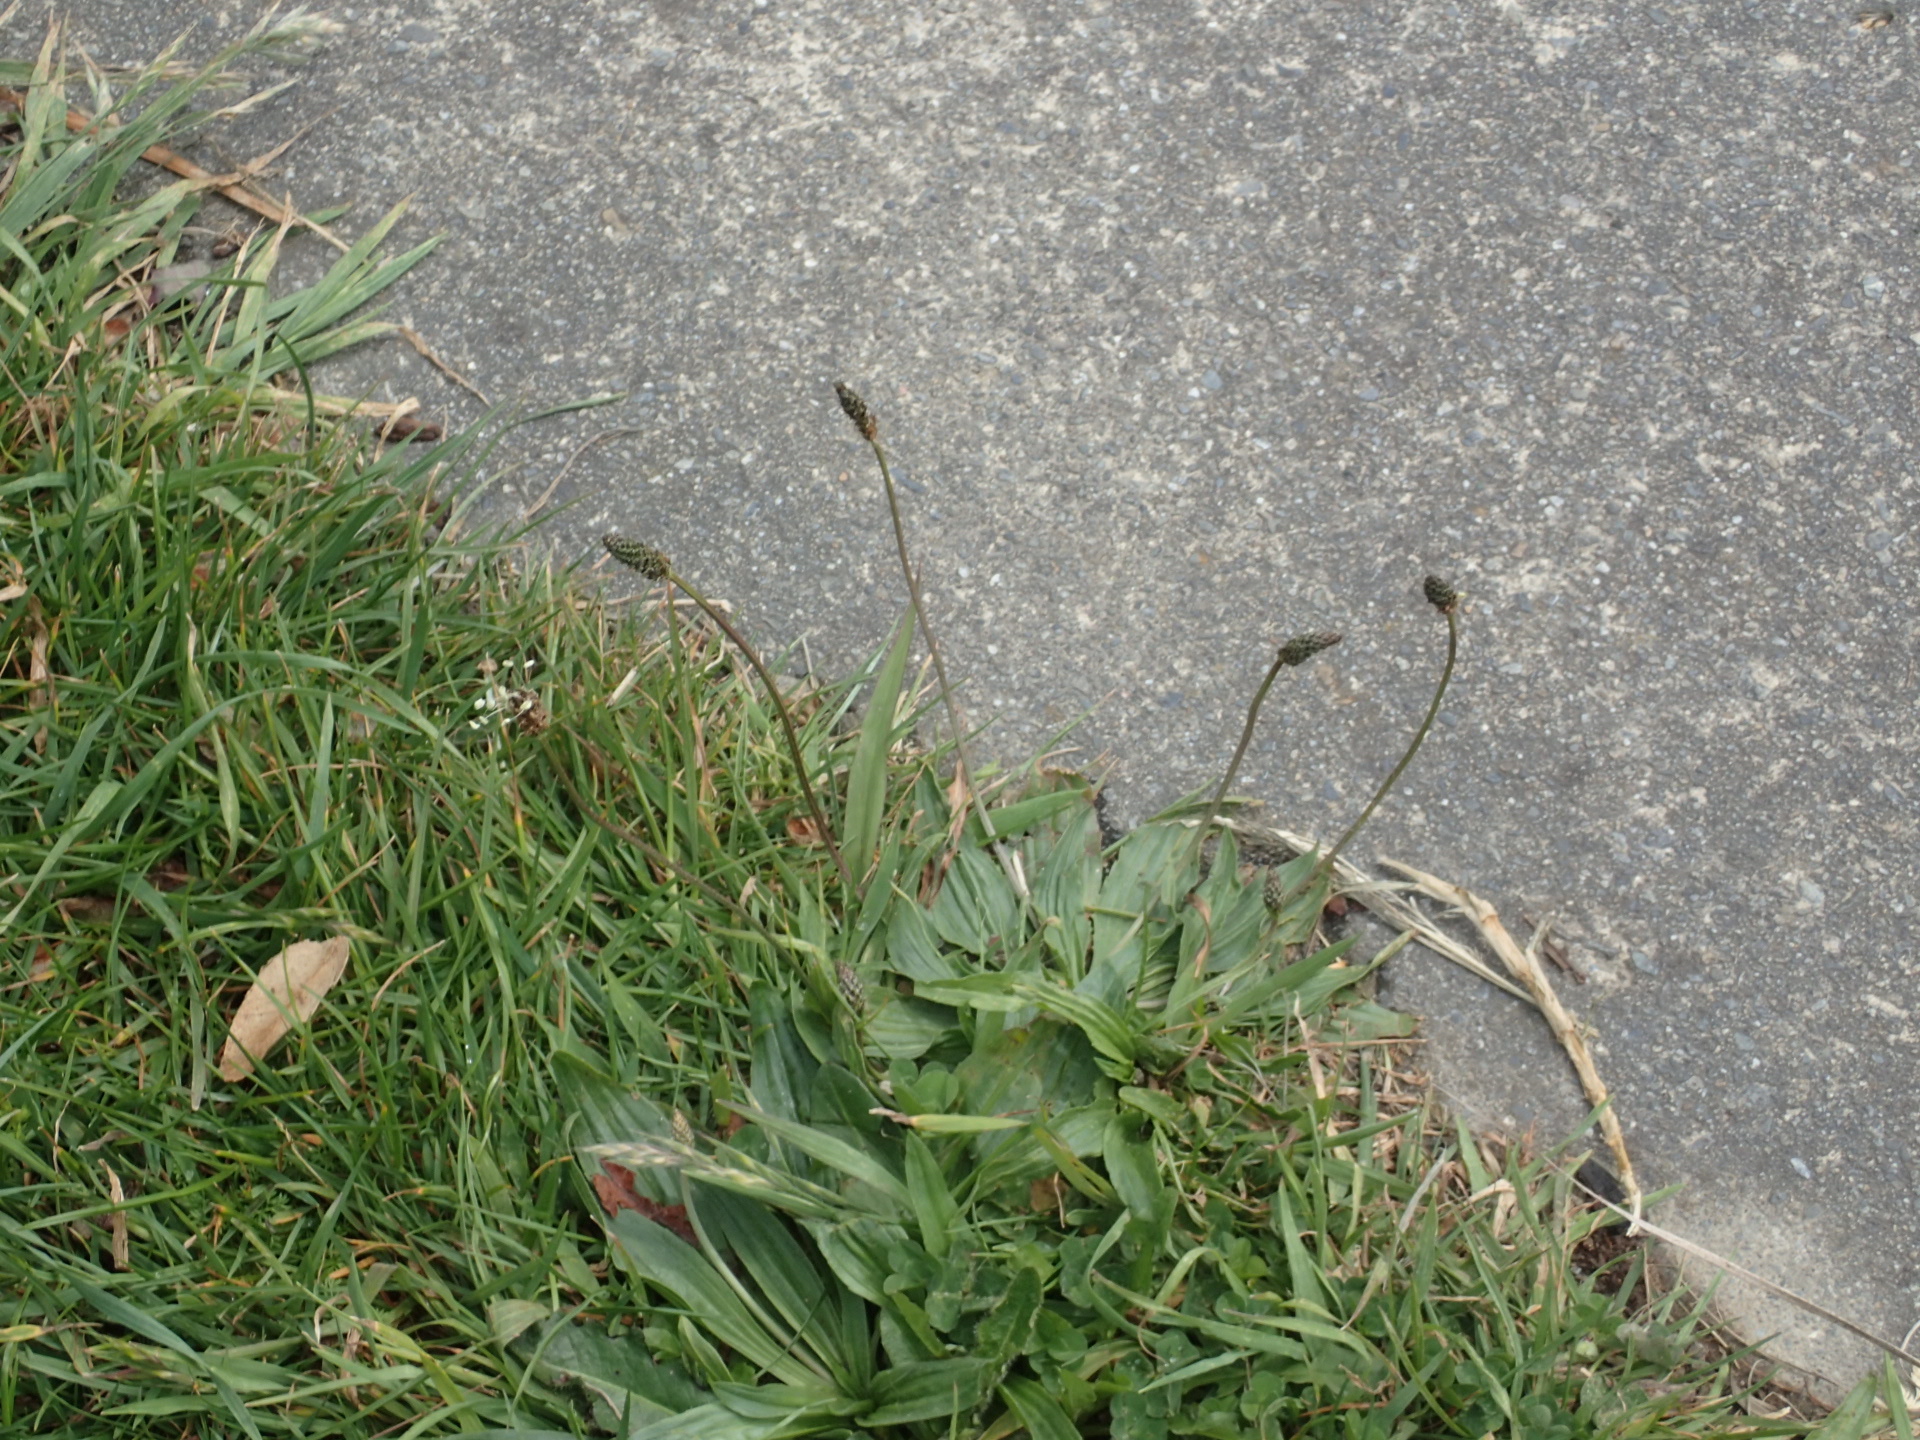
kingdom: Plantae
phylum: Tracheophyta
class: Magnoliopsida
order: Lamiales
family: Plantaginaceae
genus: Plantago
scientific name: Plantago lanceolata
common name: Ribwort plantain
